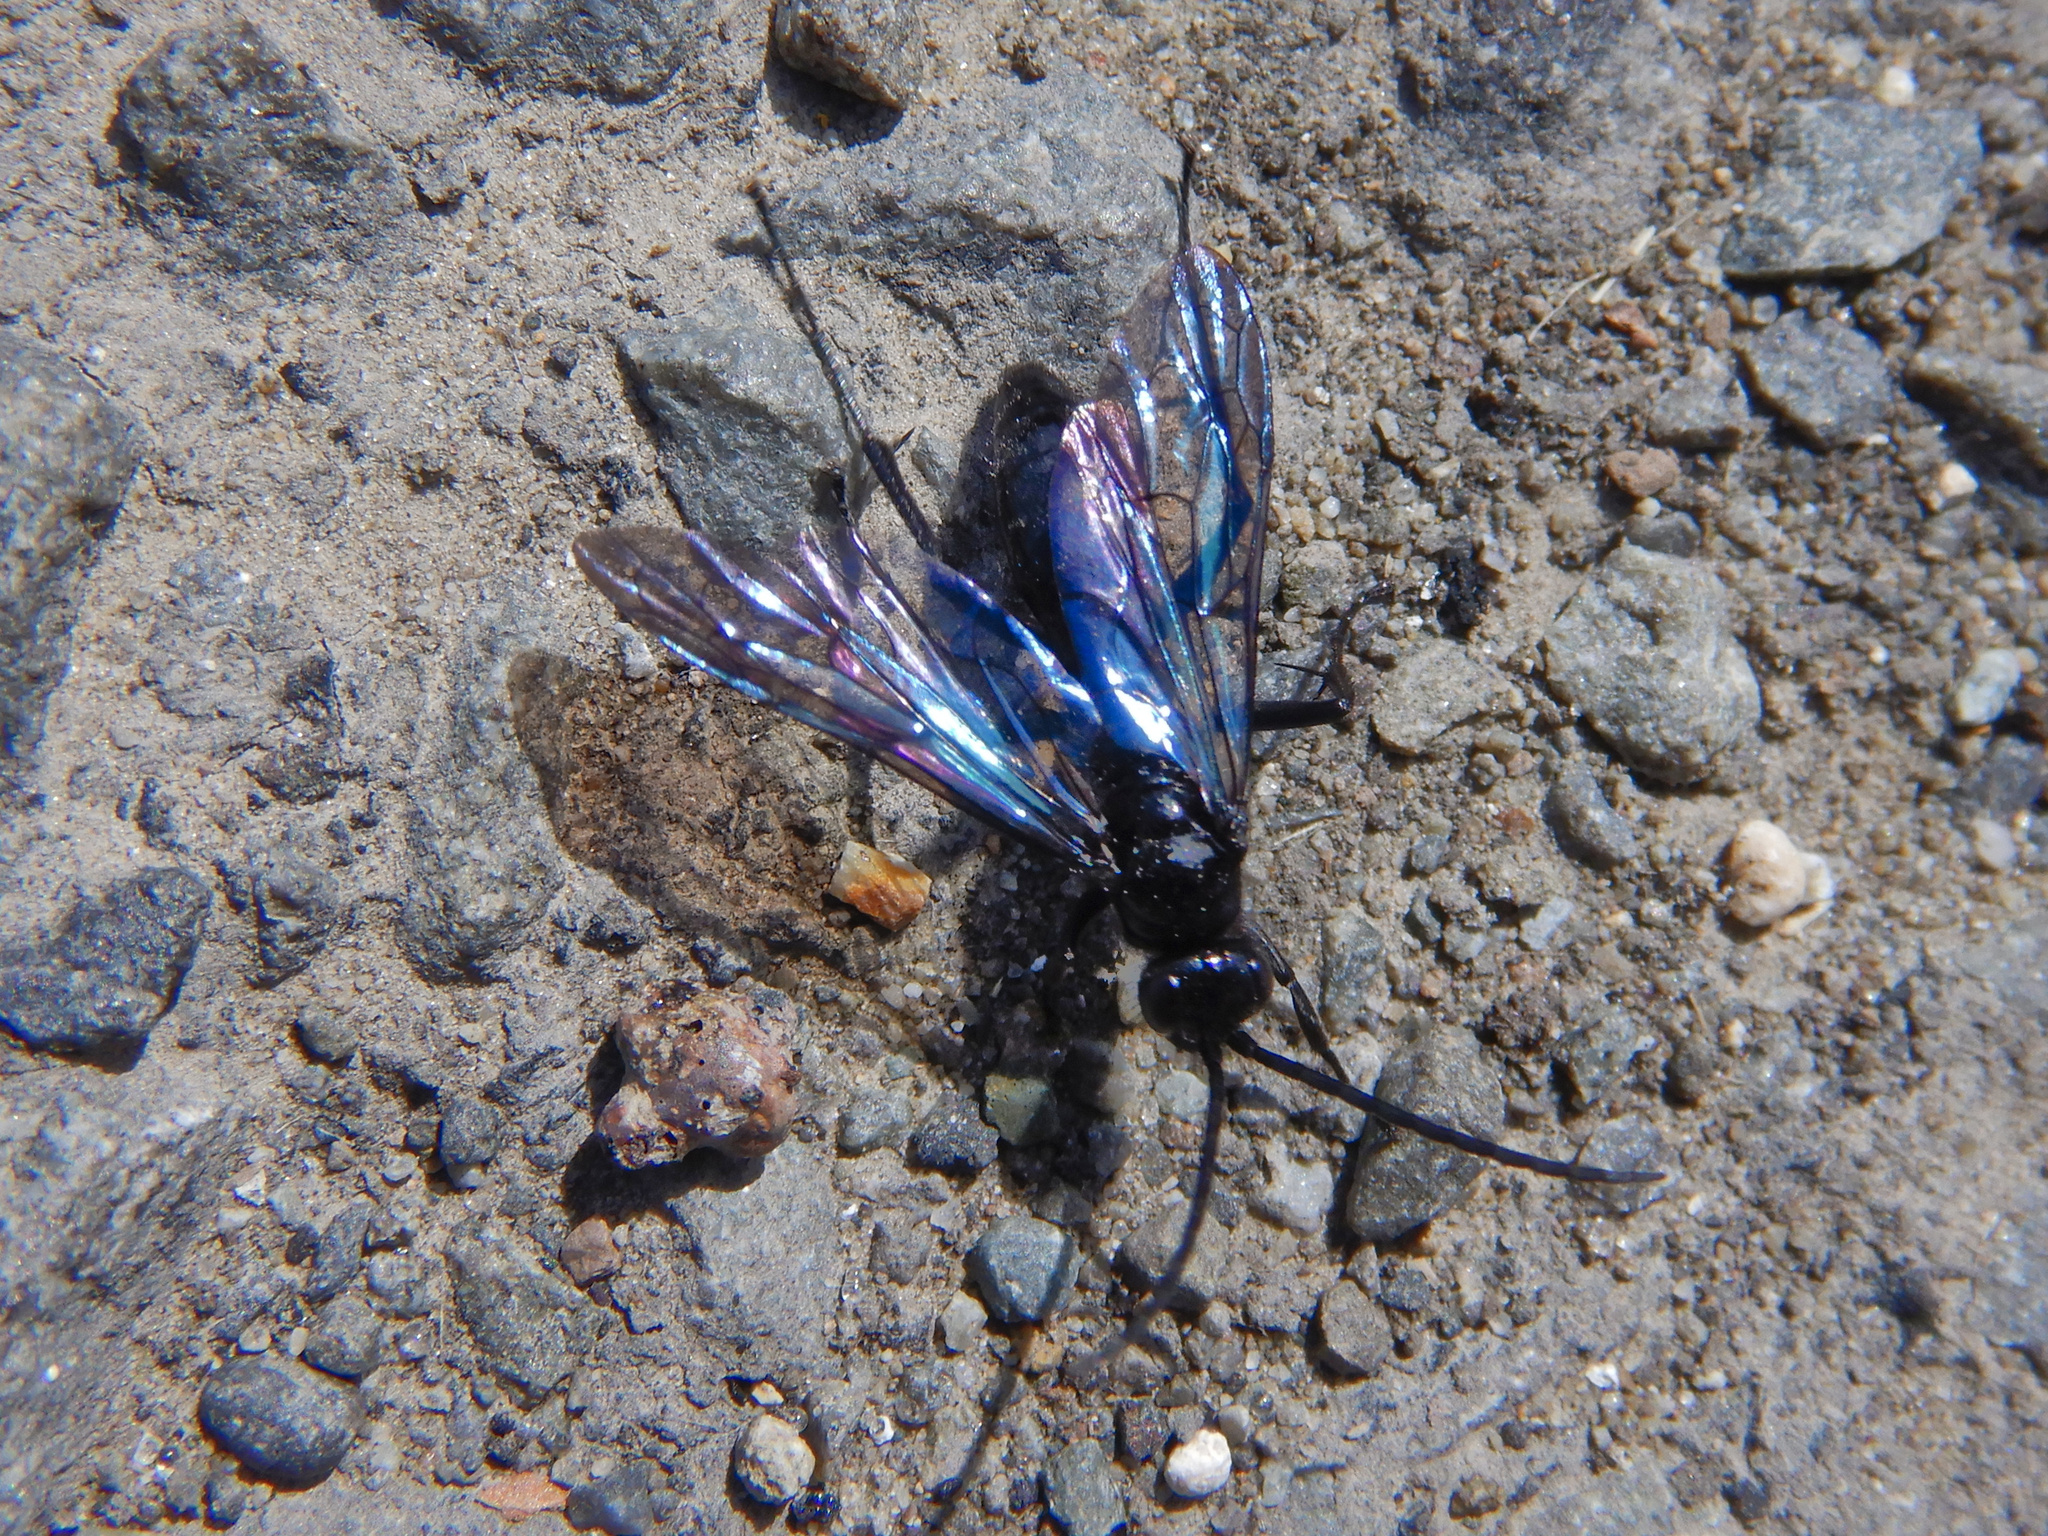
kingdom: Animalia
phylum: Arthropoda
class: Insecta
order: Hymenoptera
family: Pompilidae
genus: Priocnemis
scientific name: Priocnemis monachus
